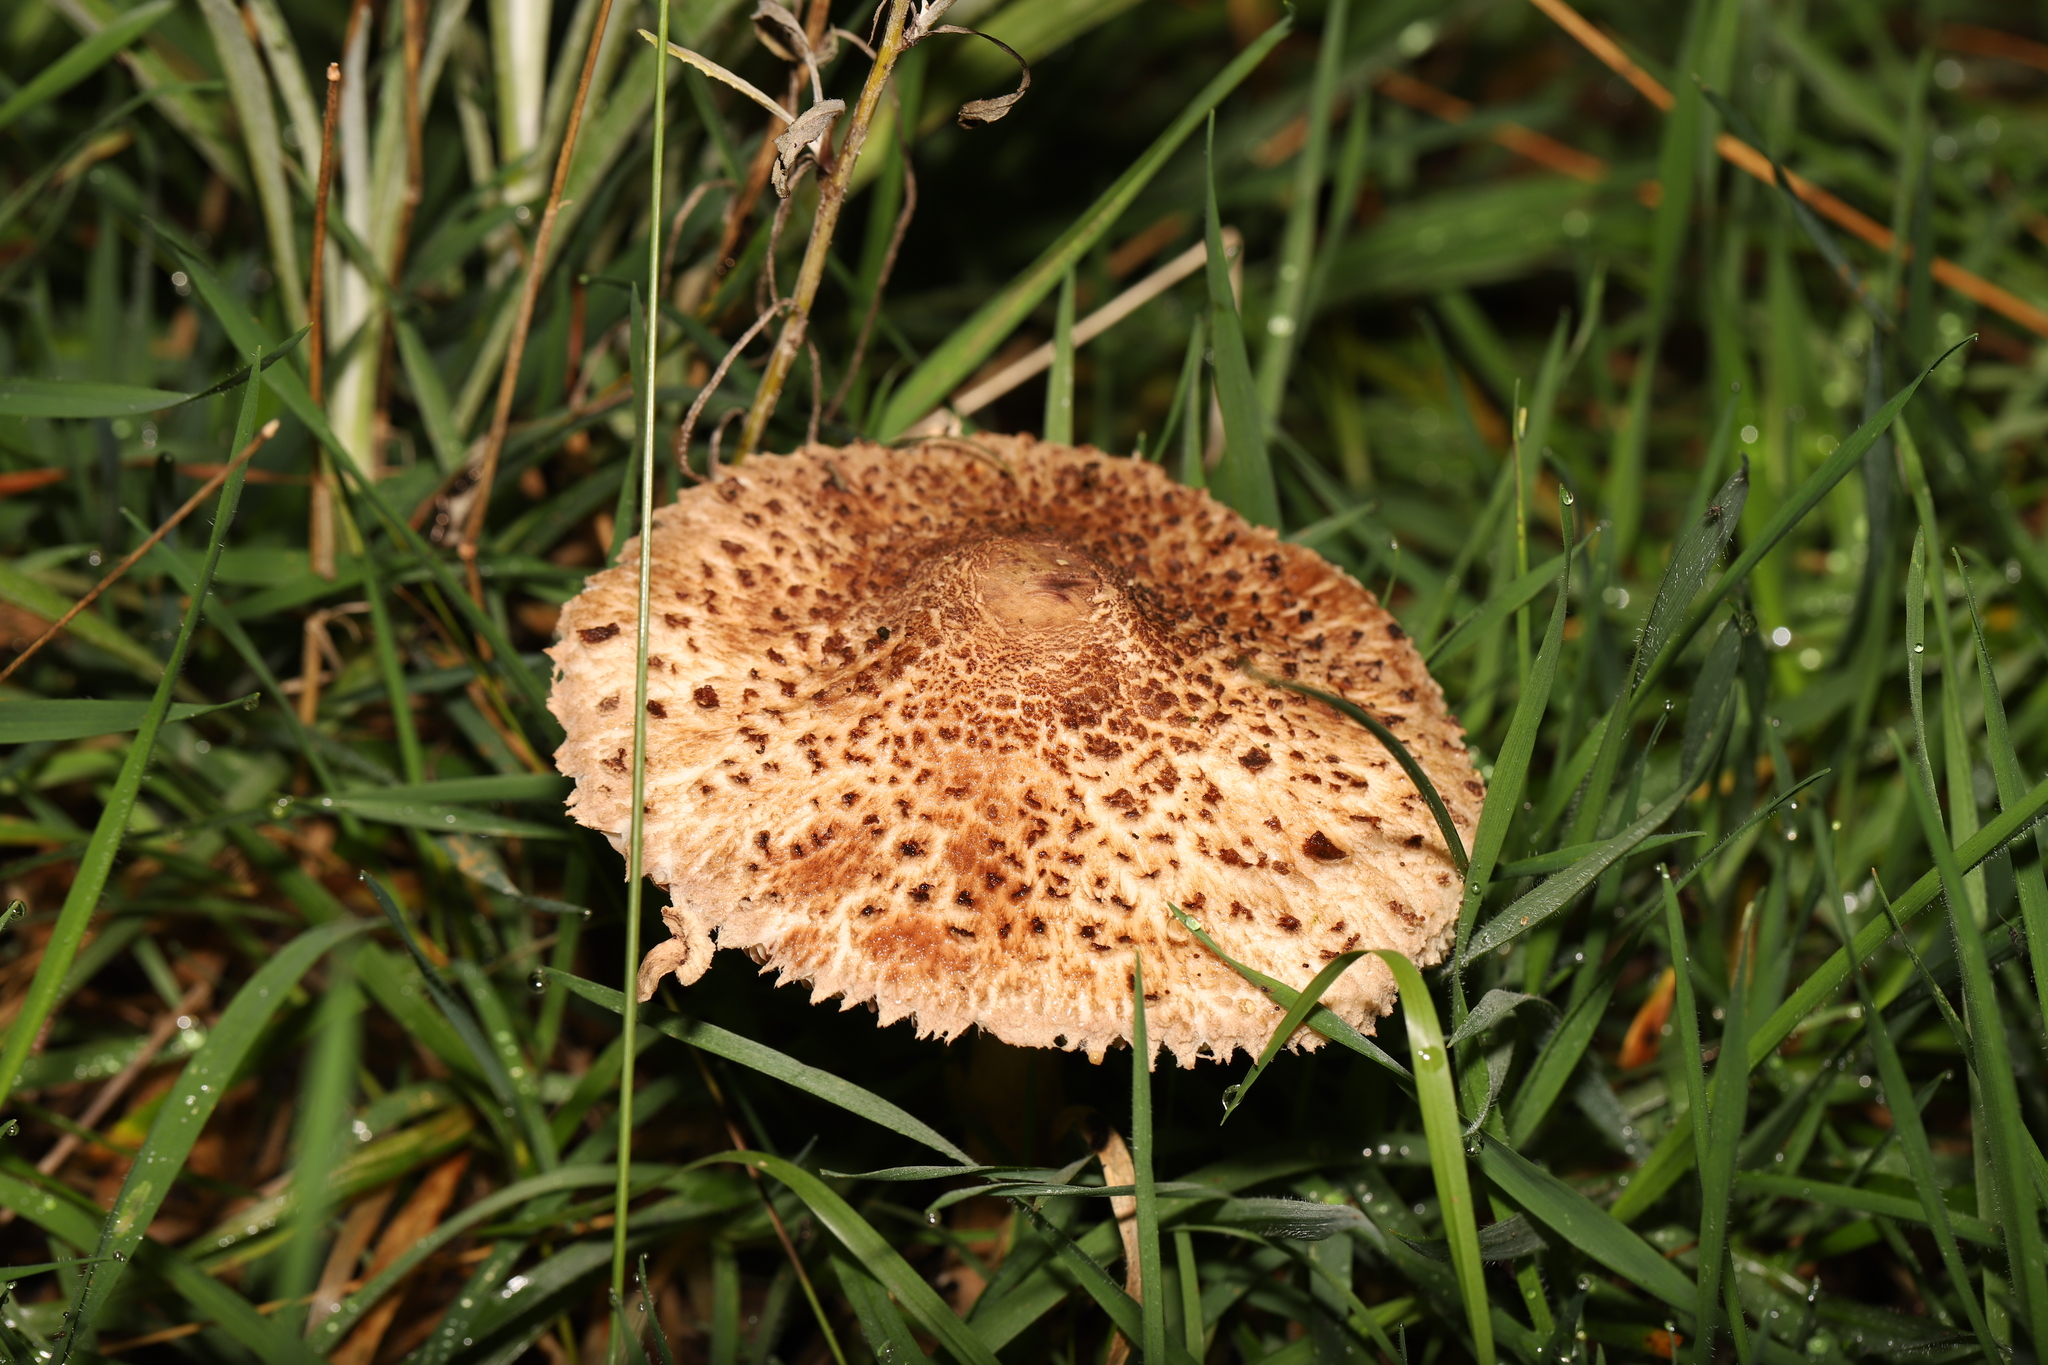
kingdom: Fungi
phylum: Basidiomycota
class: Agaricomycetes
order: Agaricales
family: Agaricaceae
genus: Macrolepiota
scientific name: Macrolepiota clelandii
